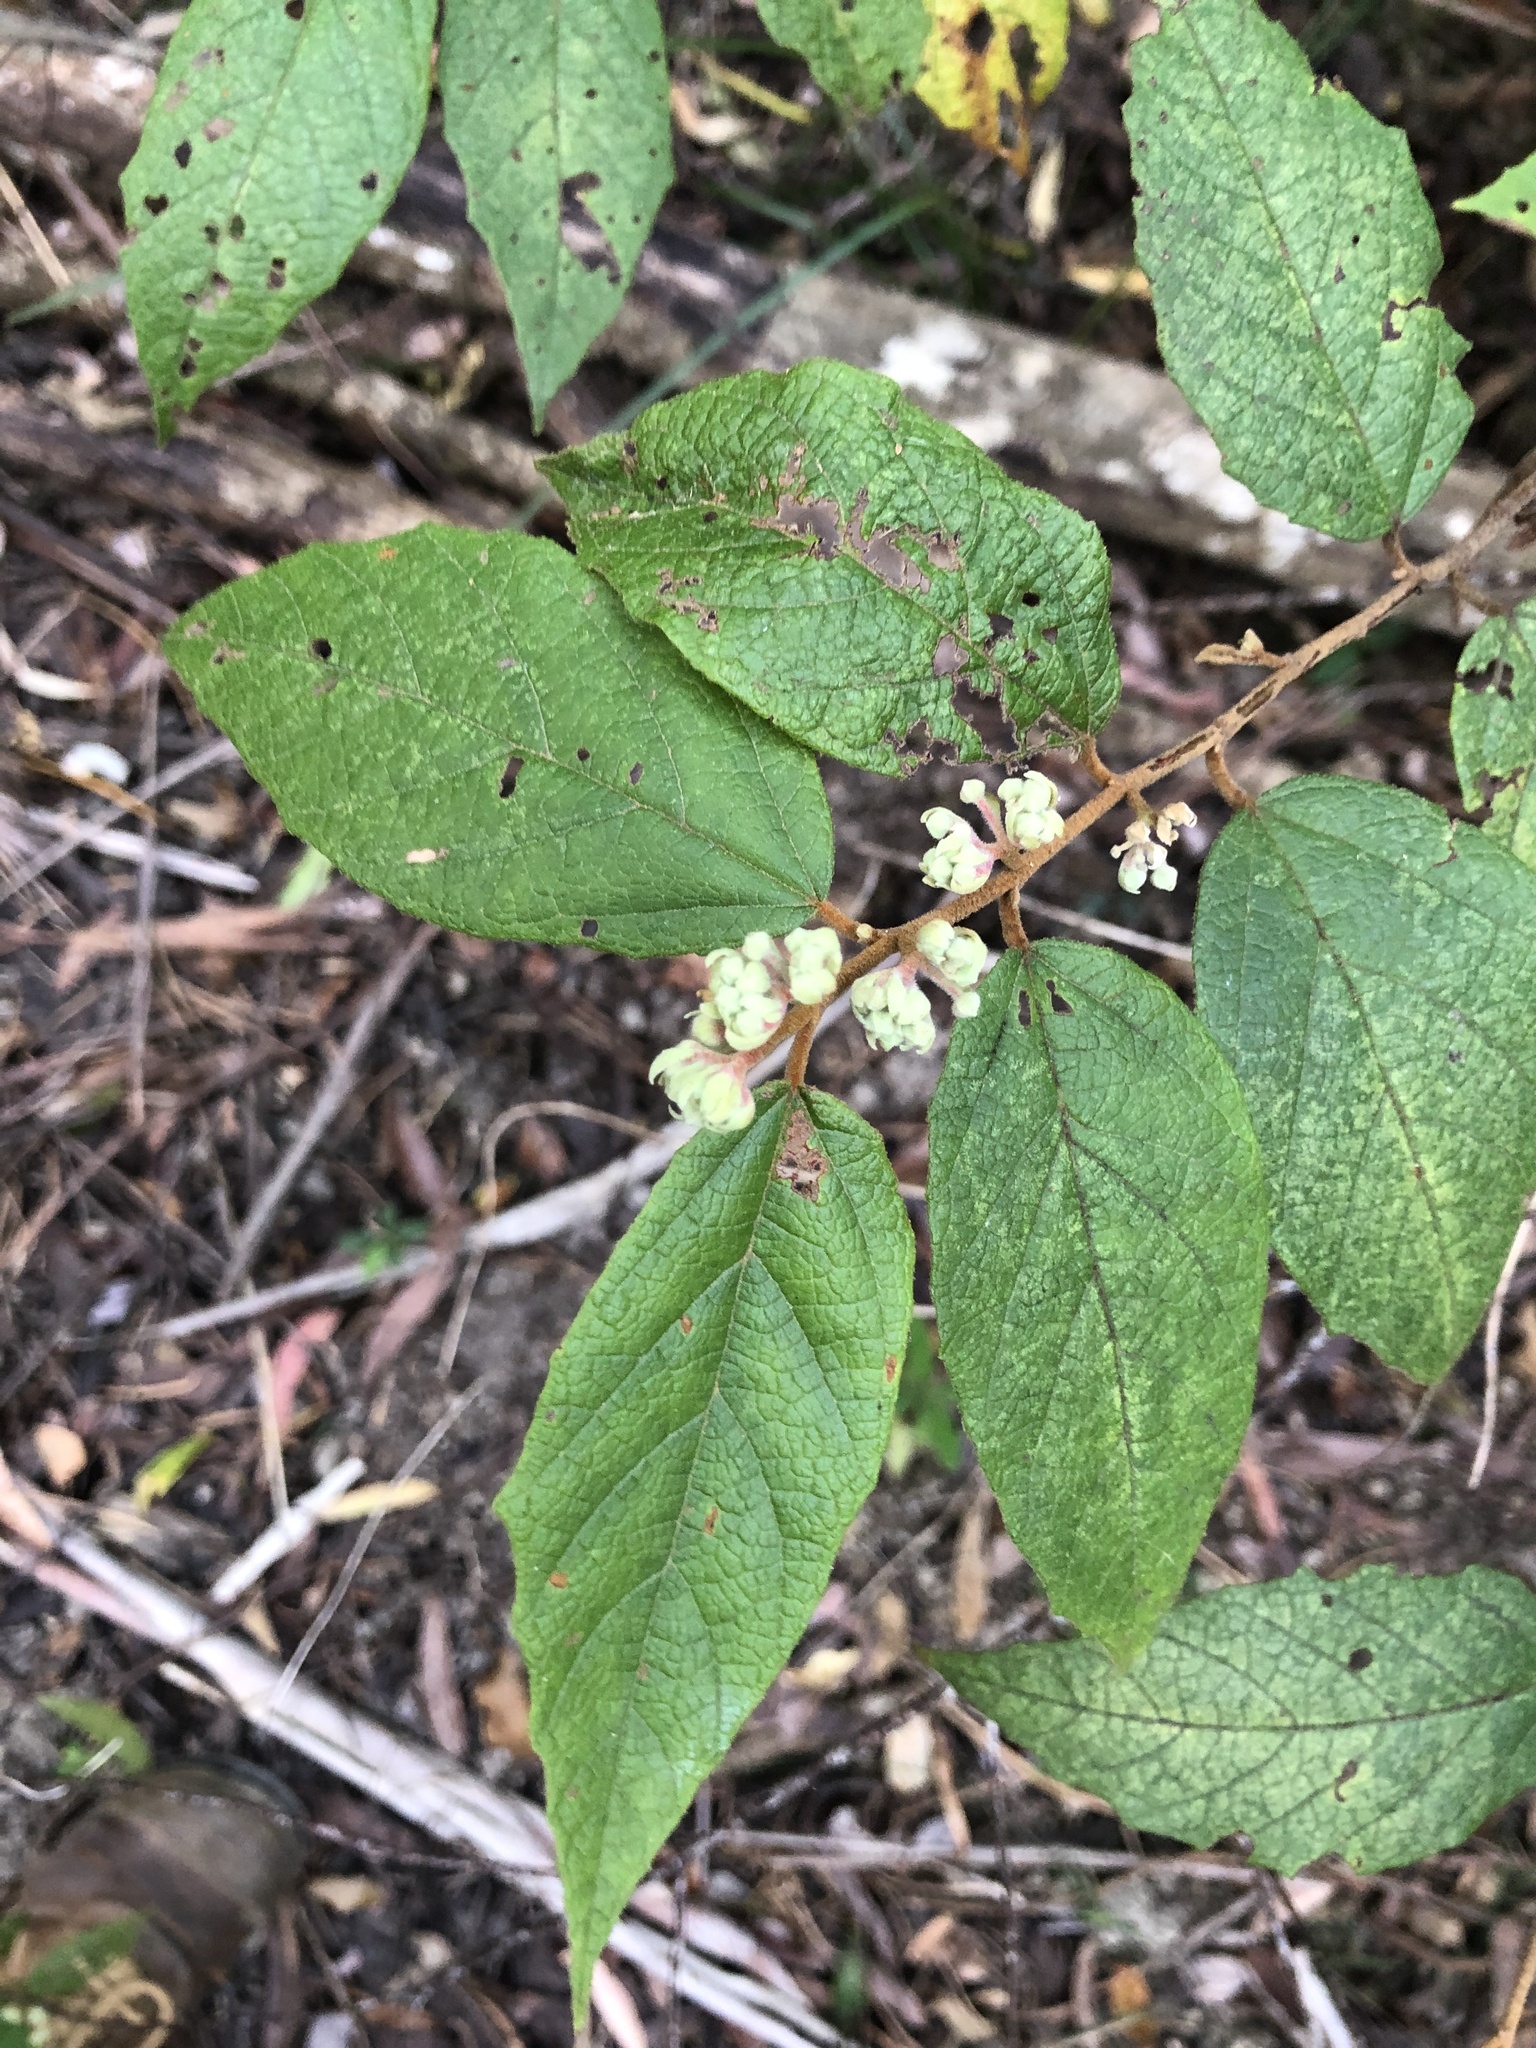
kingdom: Plantae
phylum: Tracheophyta
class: Magnoliopsida
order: Malvales
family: Malvaceae
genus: Seringia
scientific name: Seringia arborescens
